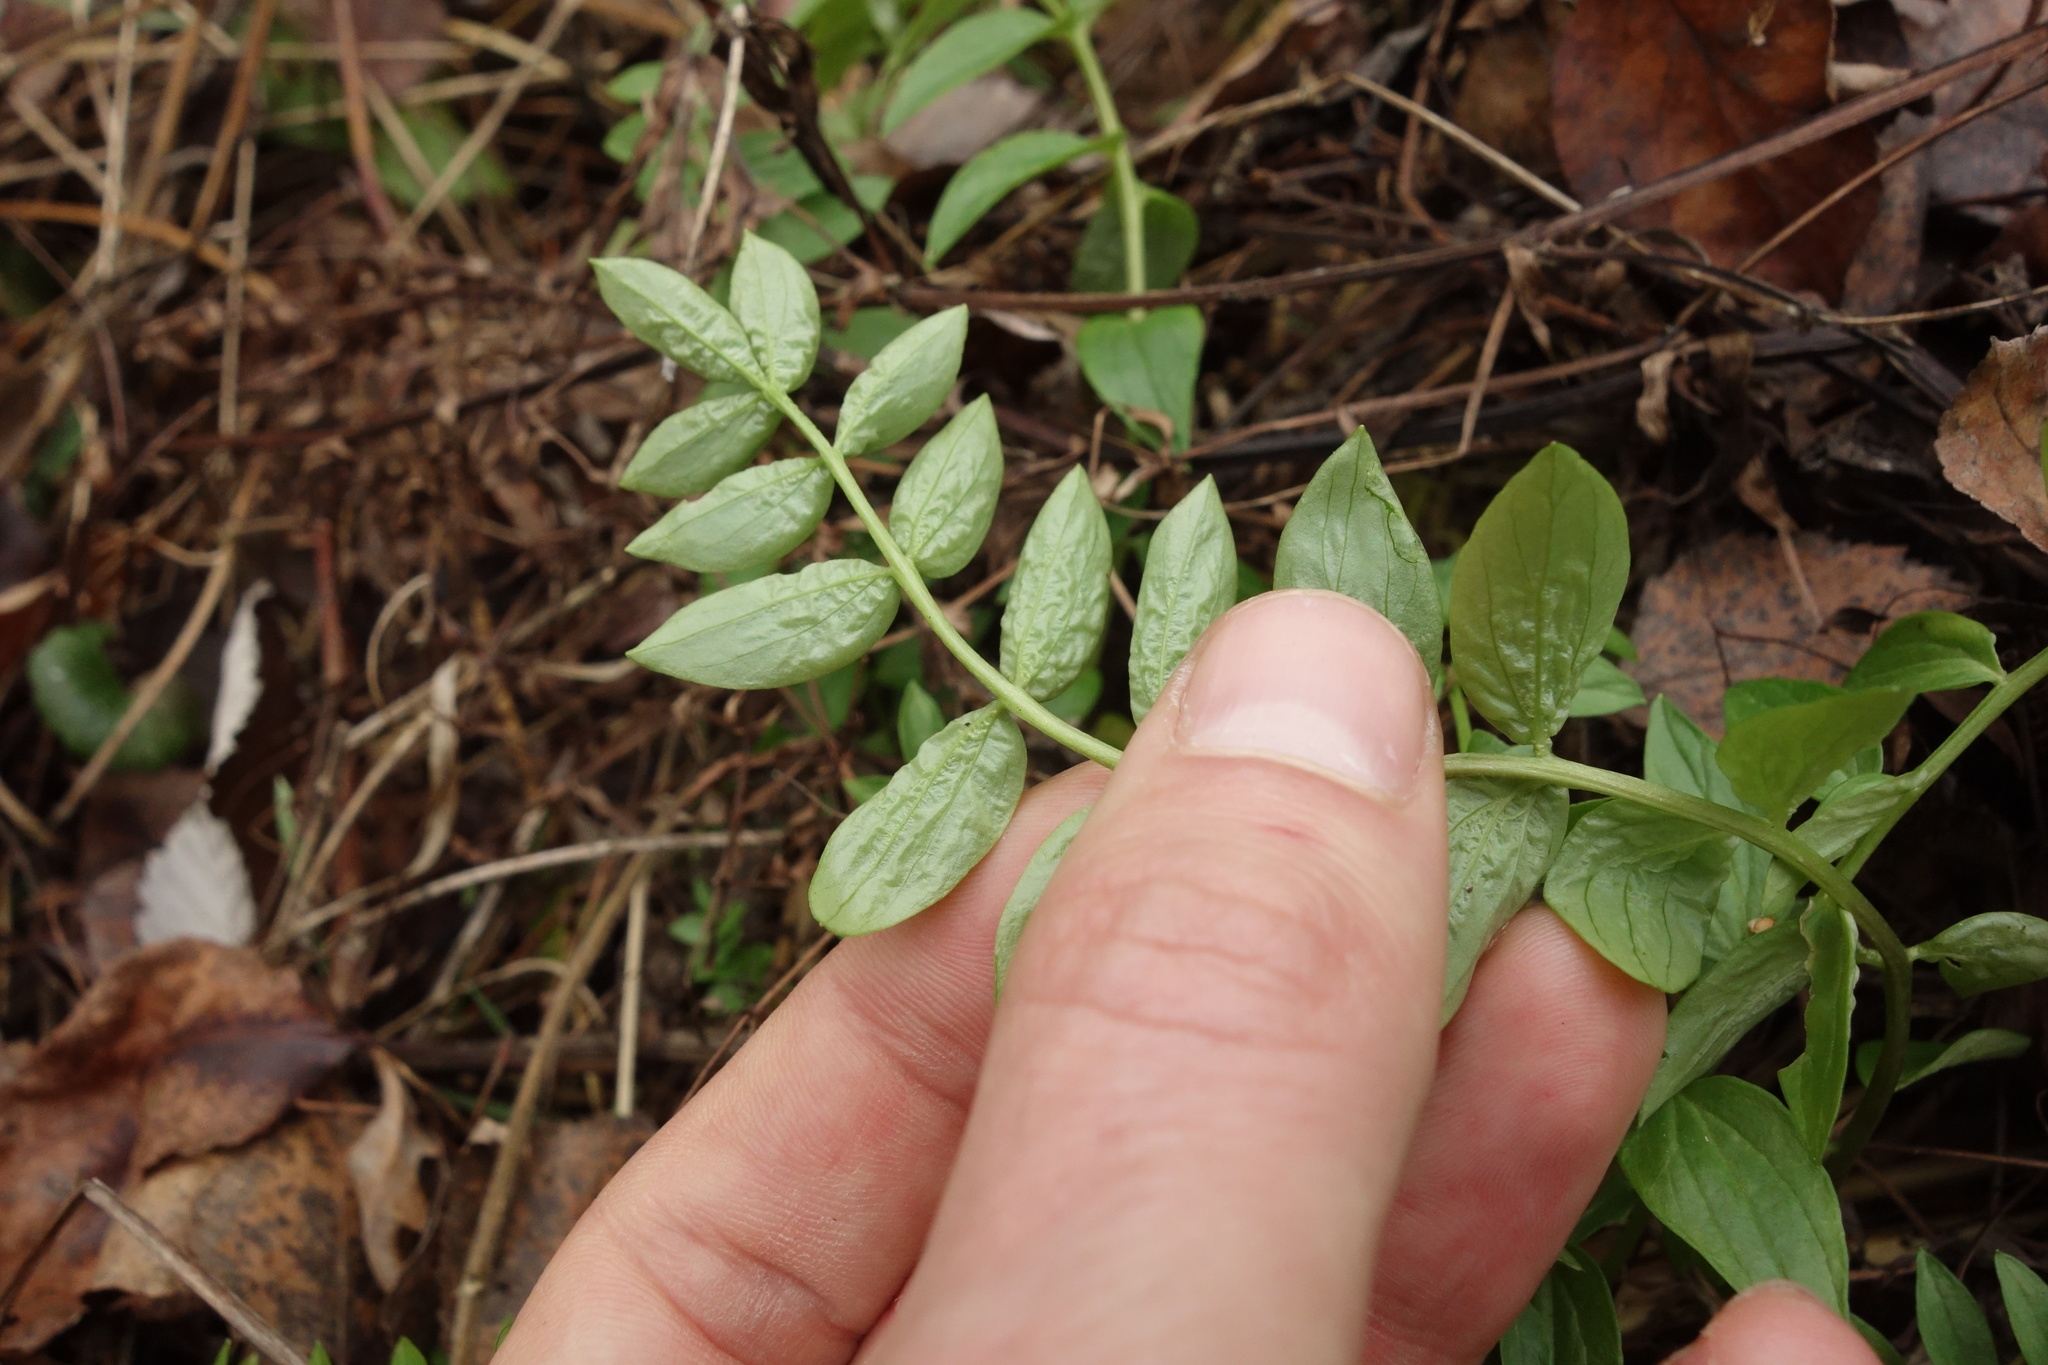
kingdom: Plantae
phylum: Tracheophyta
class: Magnoliopsida
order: Ericales
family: Polemoniaceae
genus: Polemonium
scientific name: Polemonium caeruleum
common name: Jacob's-ladder
